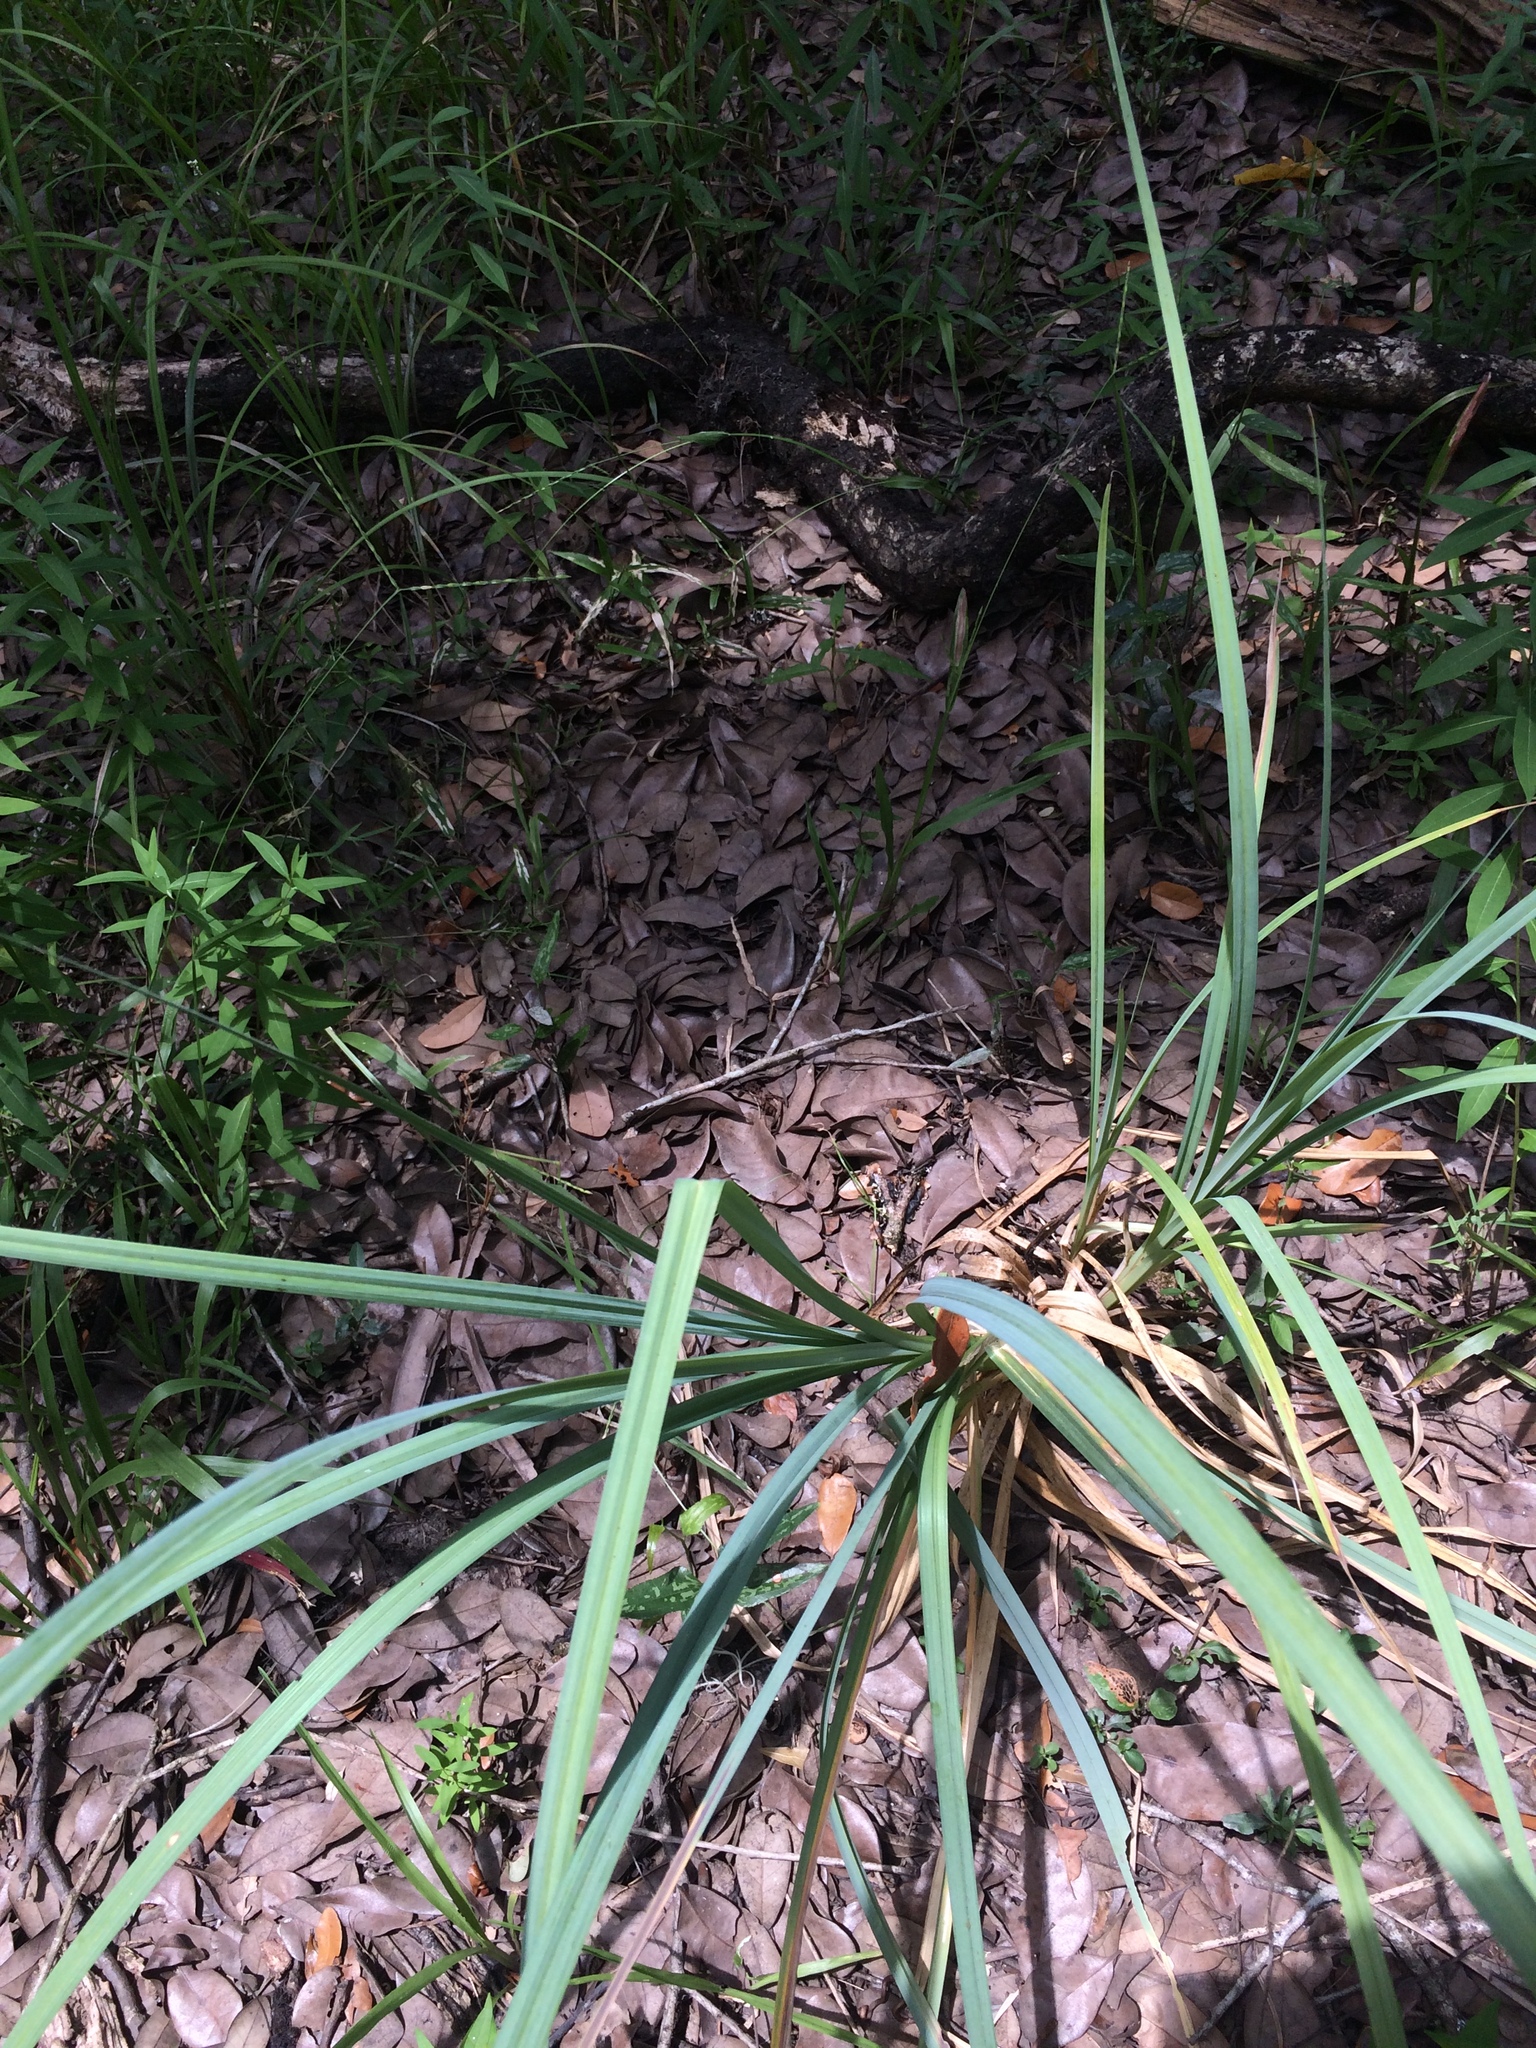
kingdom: Plantae
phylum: Tracheophyta
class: Liliopsida
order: Poales
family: Cyperaceae
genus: Carex
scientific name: Carex crus-corvi
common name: Crow-spur sedge
